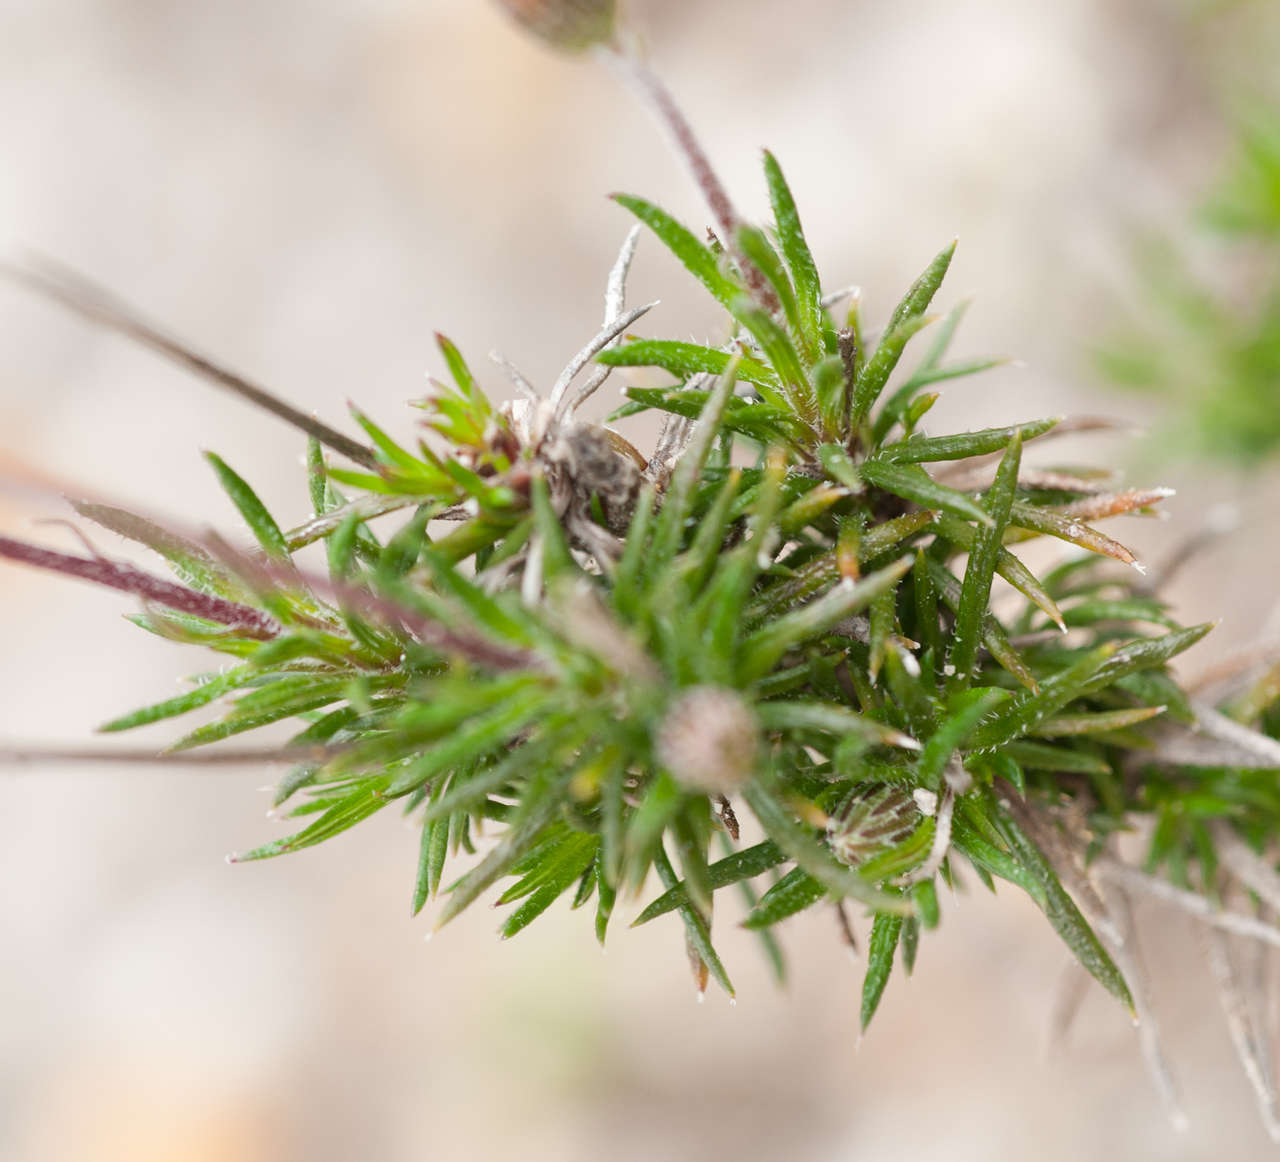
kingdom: Plantae
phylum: Tracheophyta
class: Magnoliopsida
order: Asterales
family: Asteraceae
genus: Olearia
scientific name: Olearia ciliata
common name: Fringed daisybush
